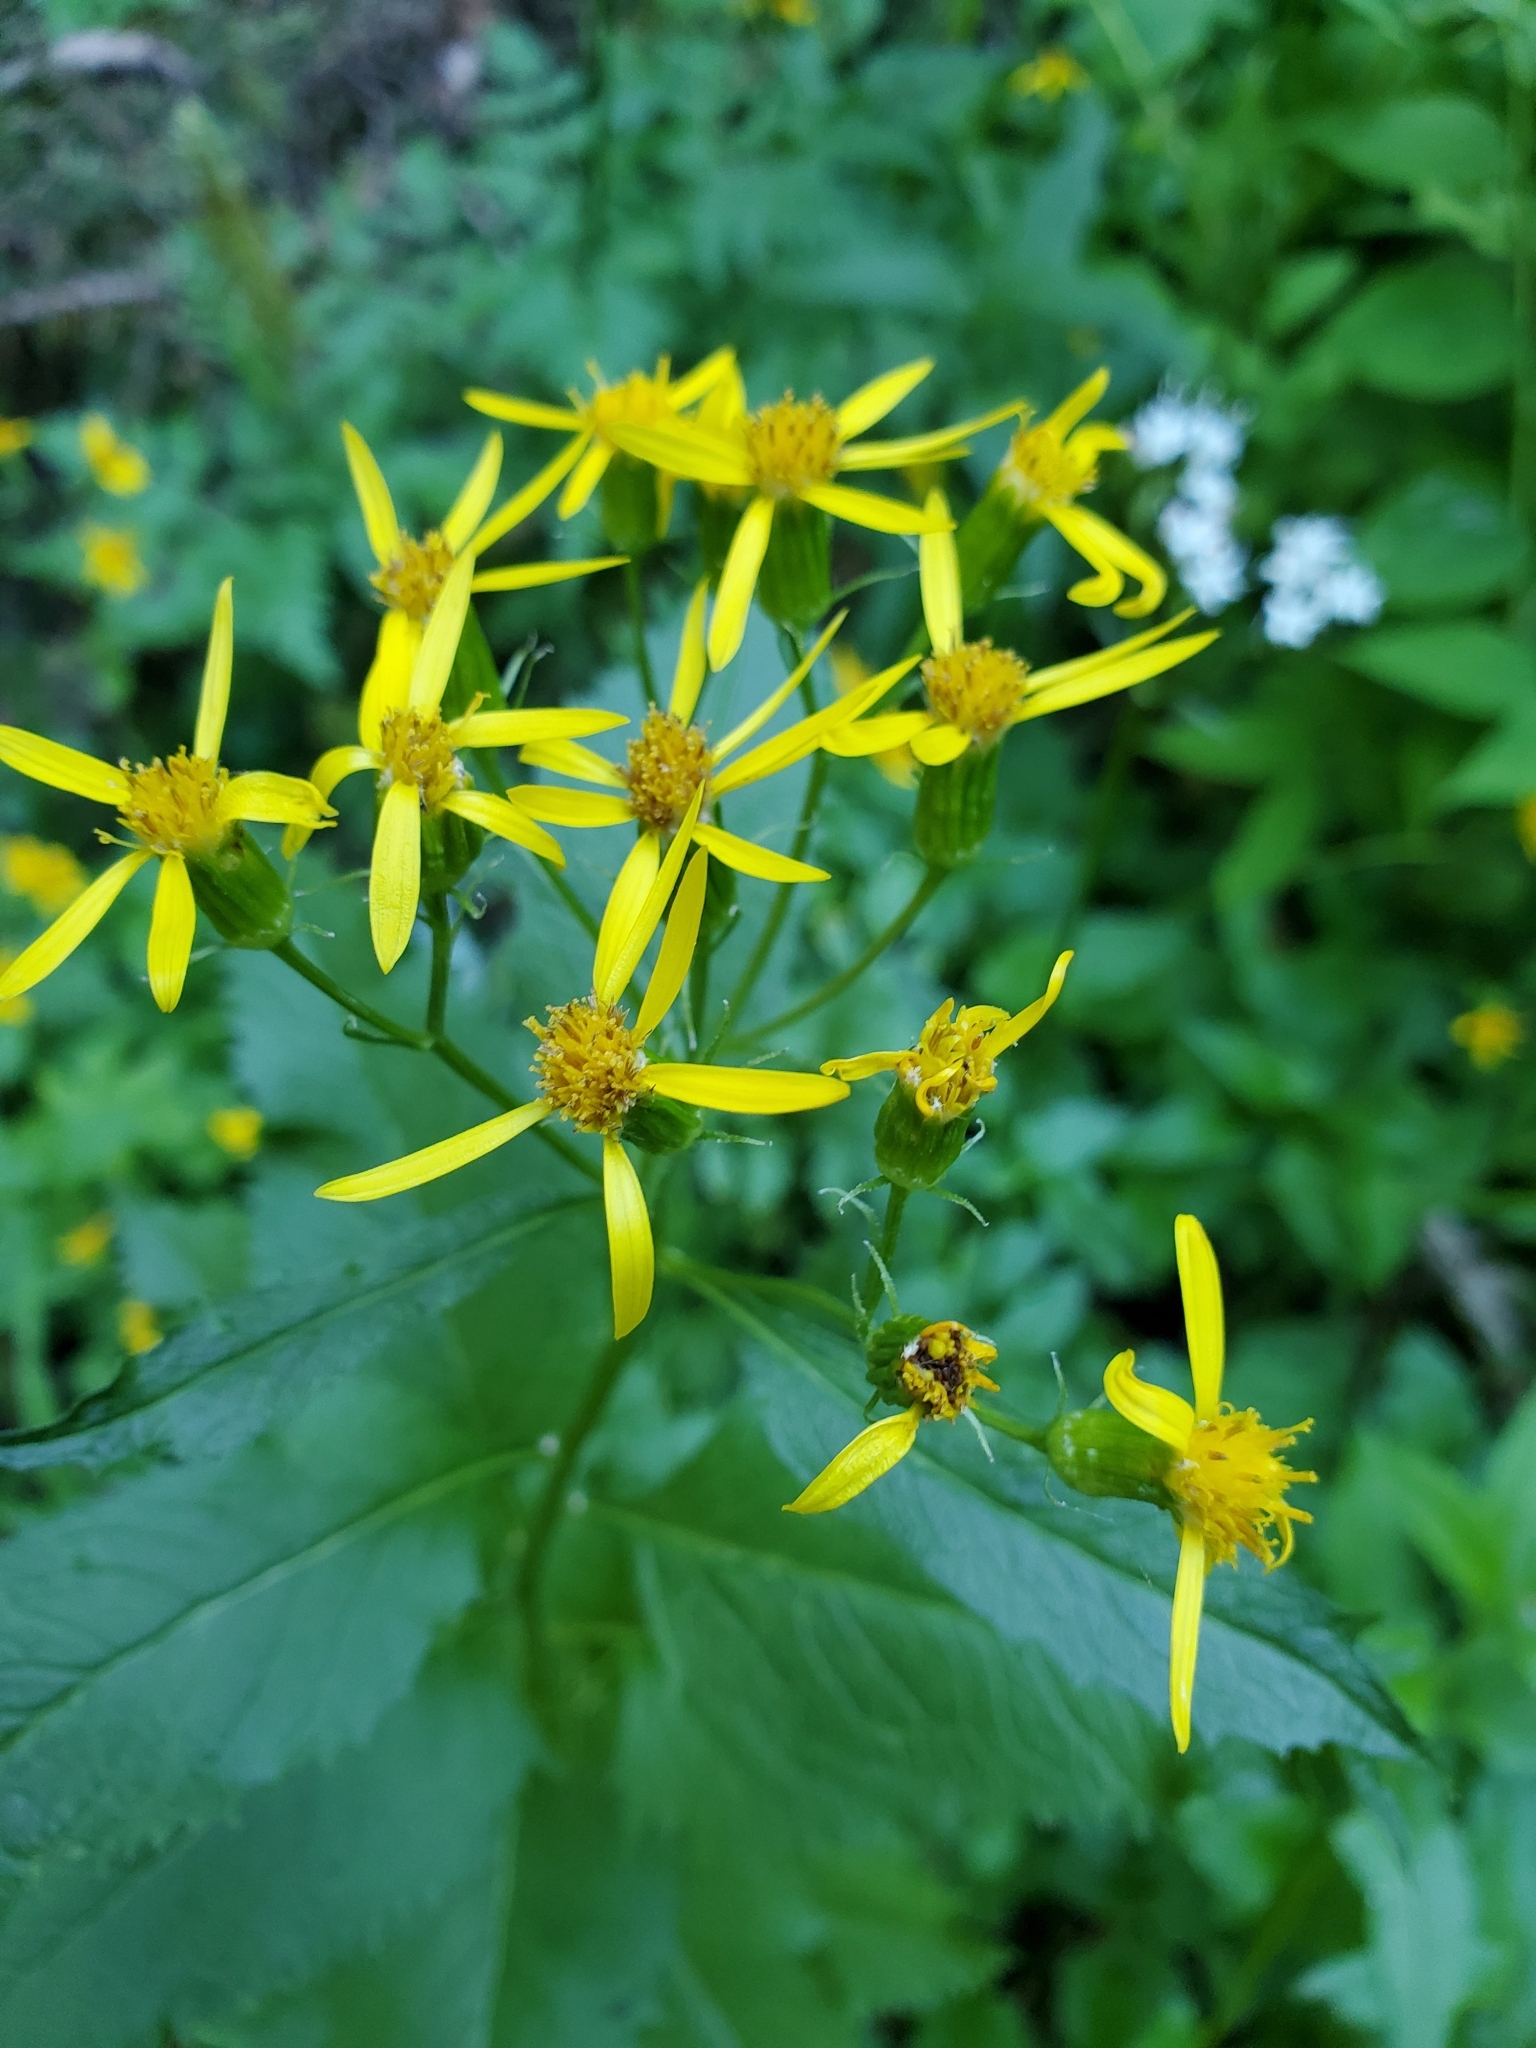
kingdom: Plantae
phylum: Tracheophyta
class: Magnoliopsida
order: Asterales
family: Asteraceae
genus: Senecio
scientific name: Senecio triangularis
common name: Arrowleaf butterweed
